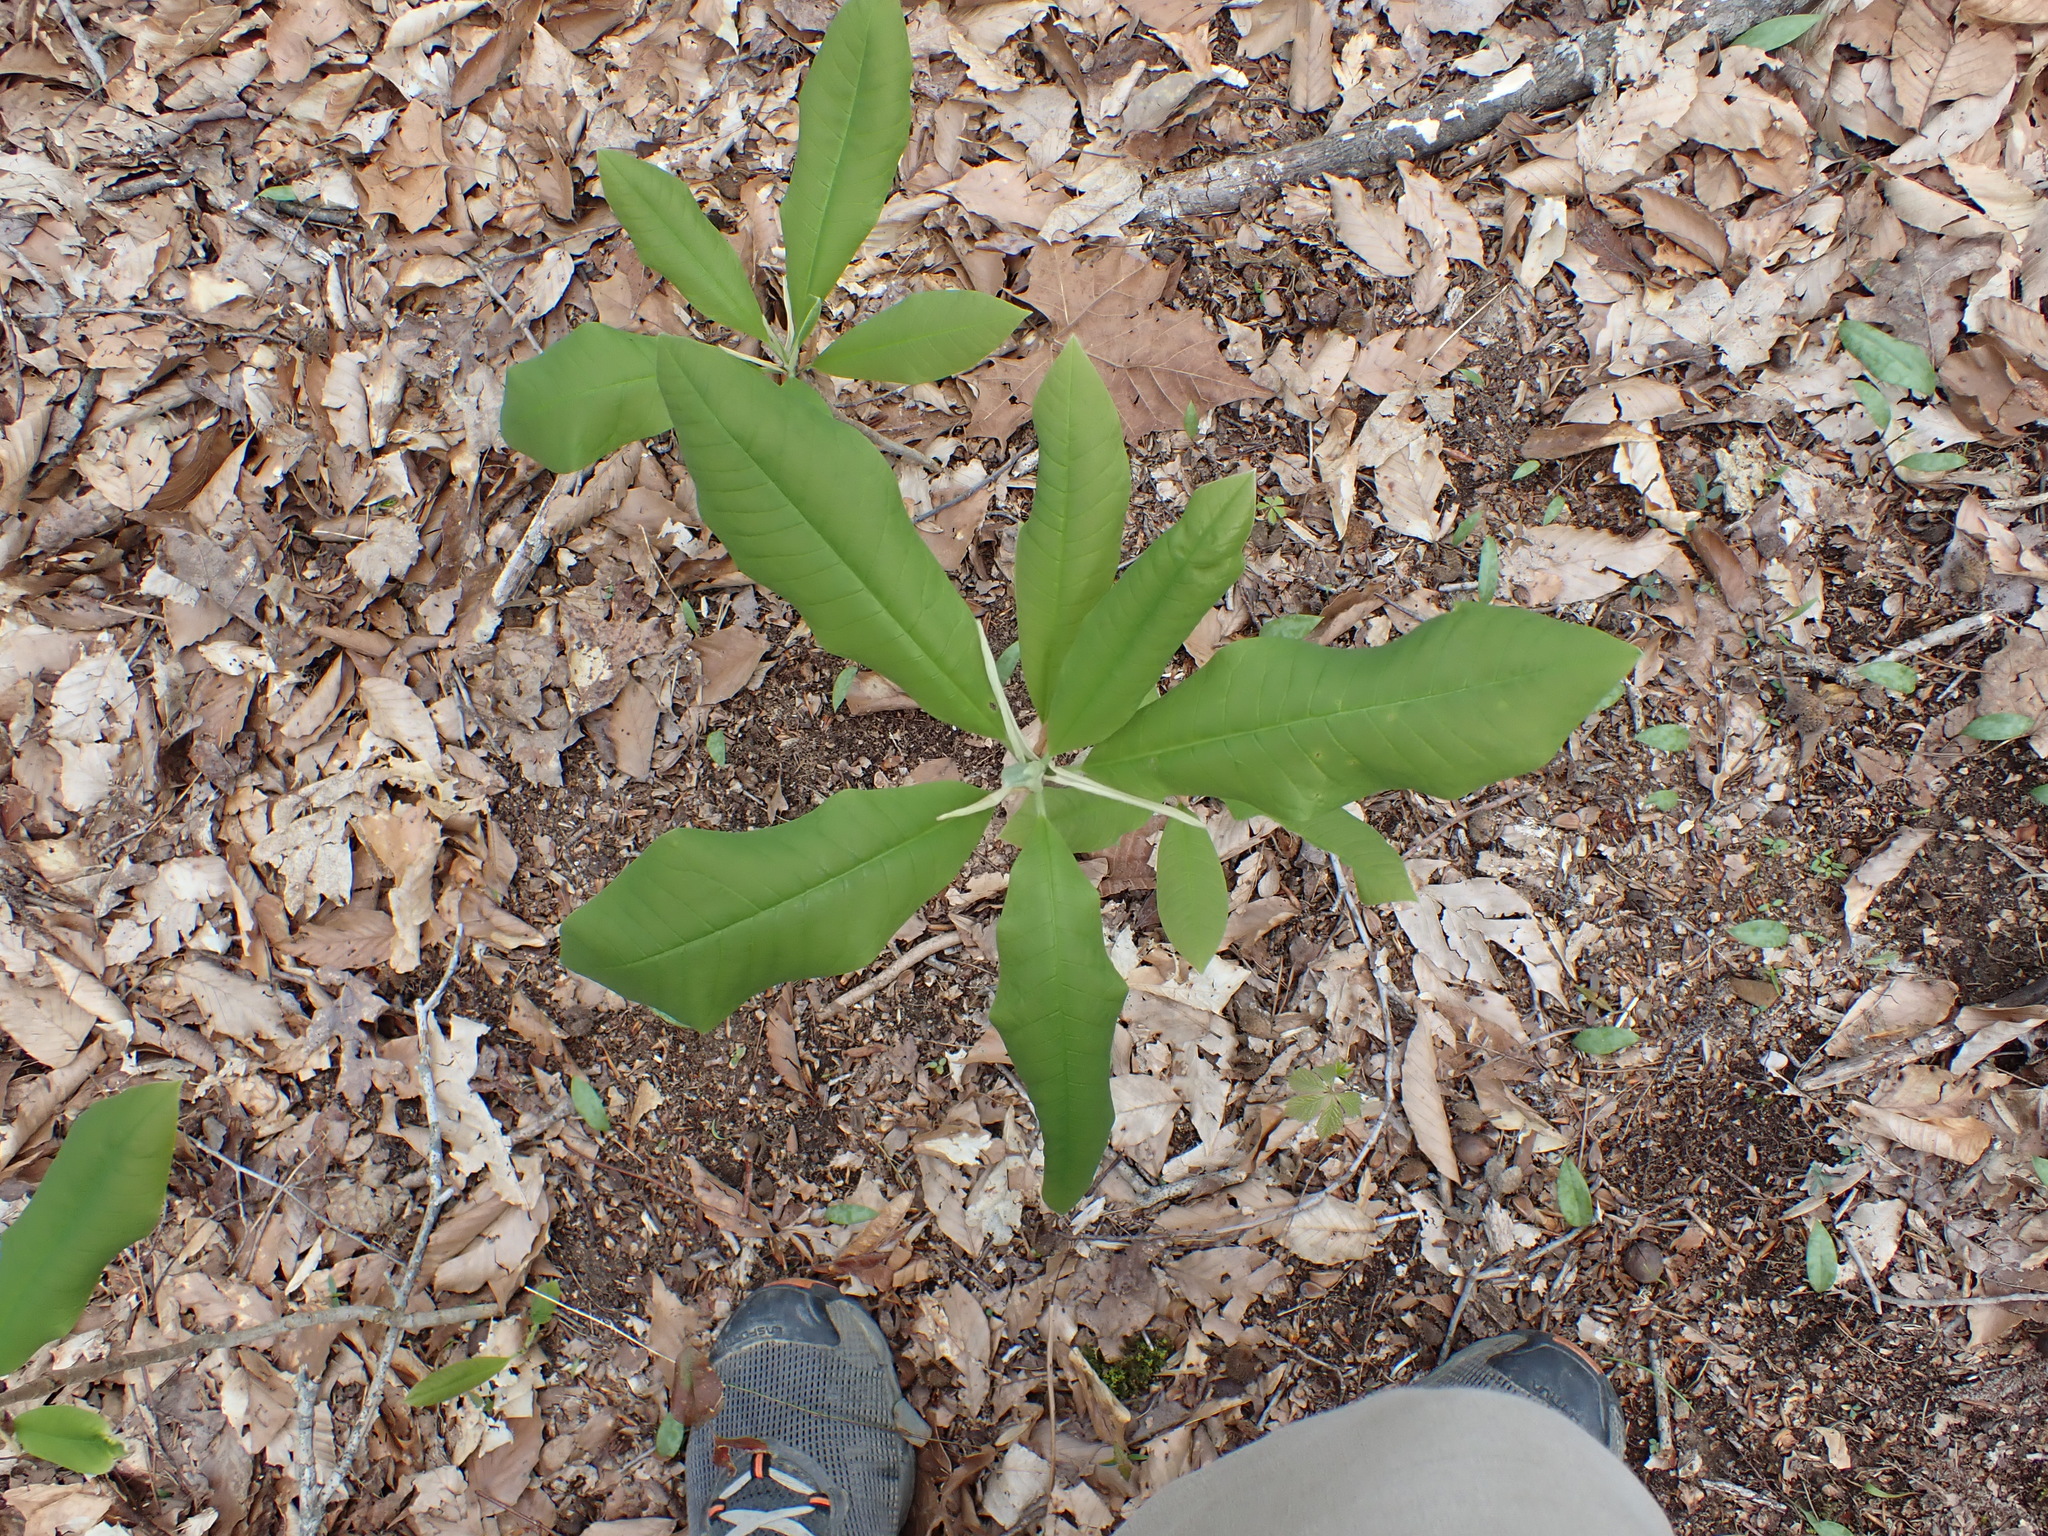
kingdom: Plantae
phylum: Tracheophyta
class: Magnoliopsida
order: Magnoliales
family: Magnoliaceae
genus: Magnolia
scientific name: Magnolia tripetala
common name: Umbrella magnolia
